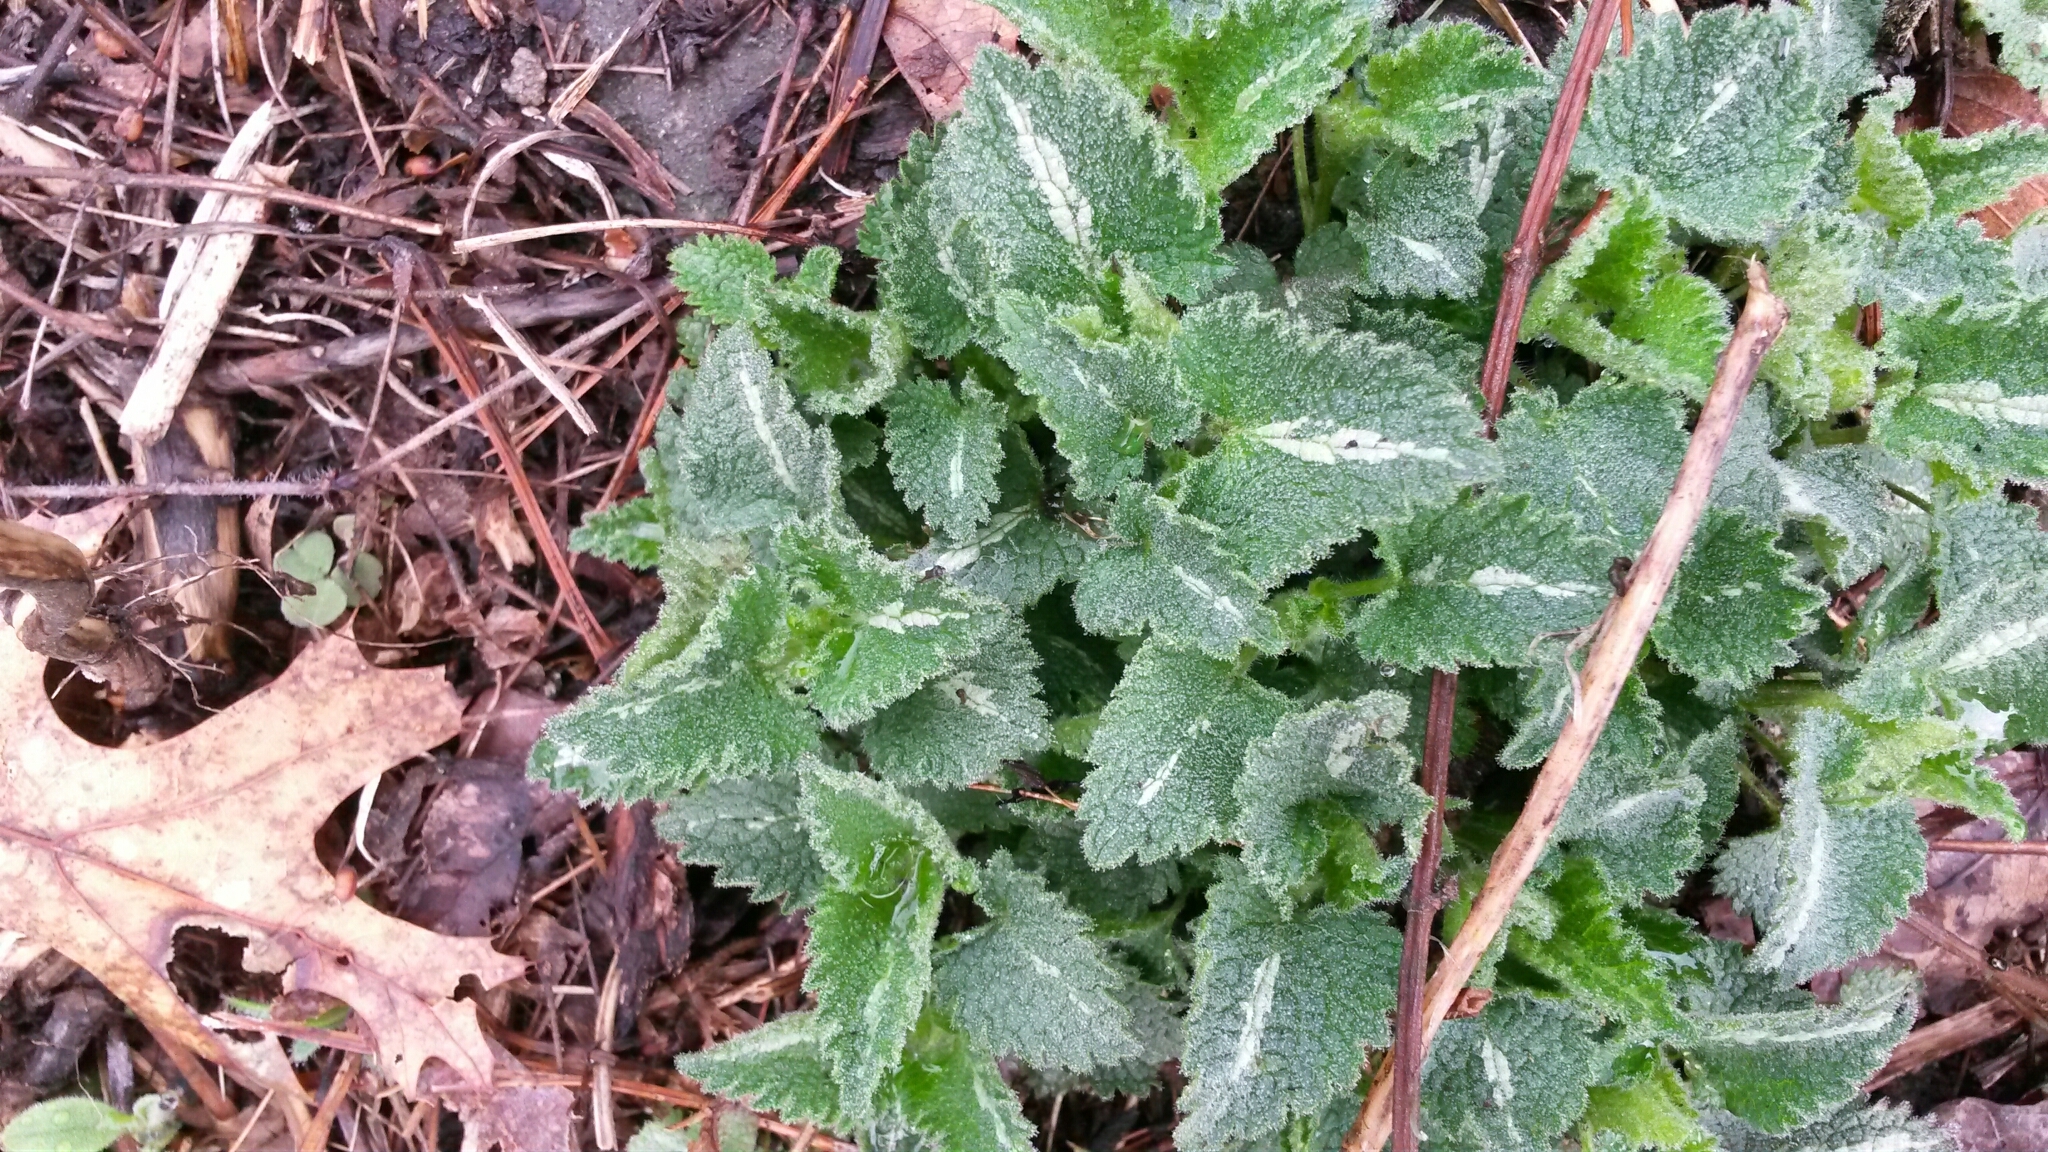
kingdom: Plantae
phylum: Tracheophyta
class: Magnoliopsida
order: Lamiales
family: Lamiaceae
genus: Lamium
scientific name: Lamium maculatum
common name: Spotted dead-nettle
